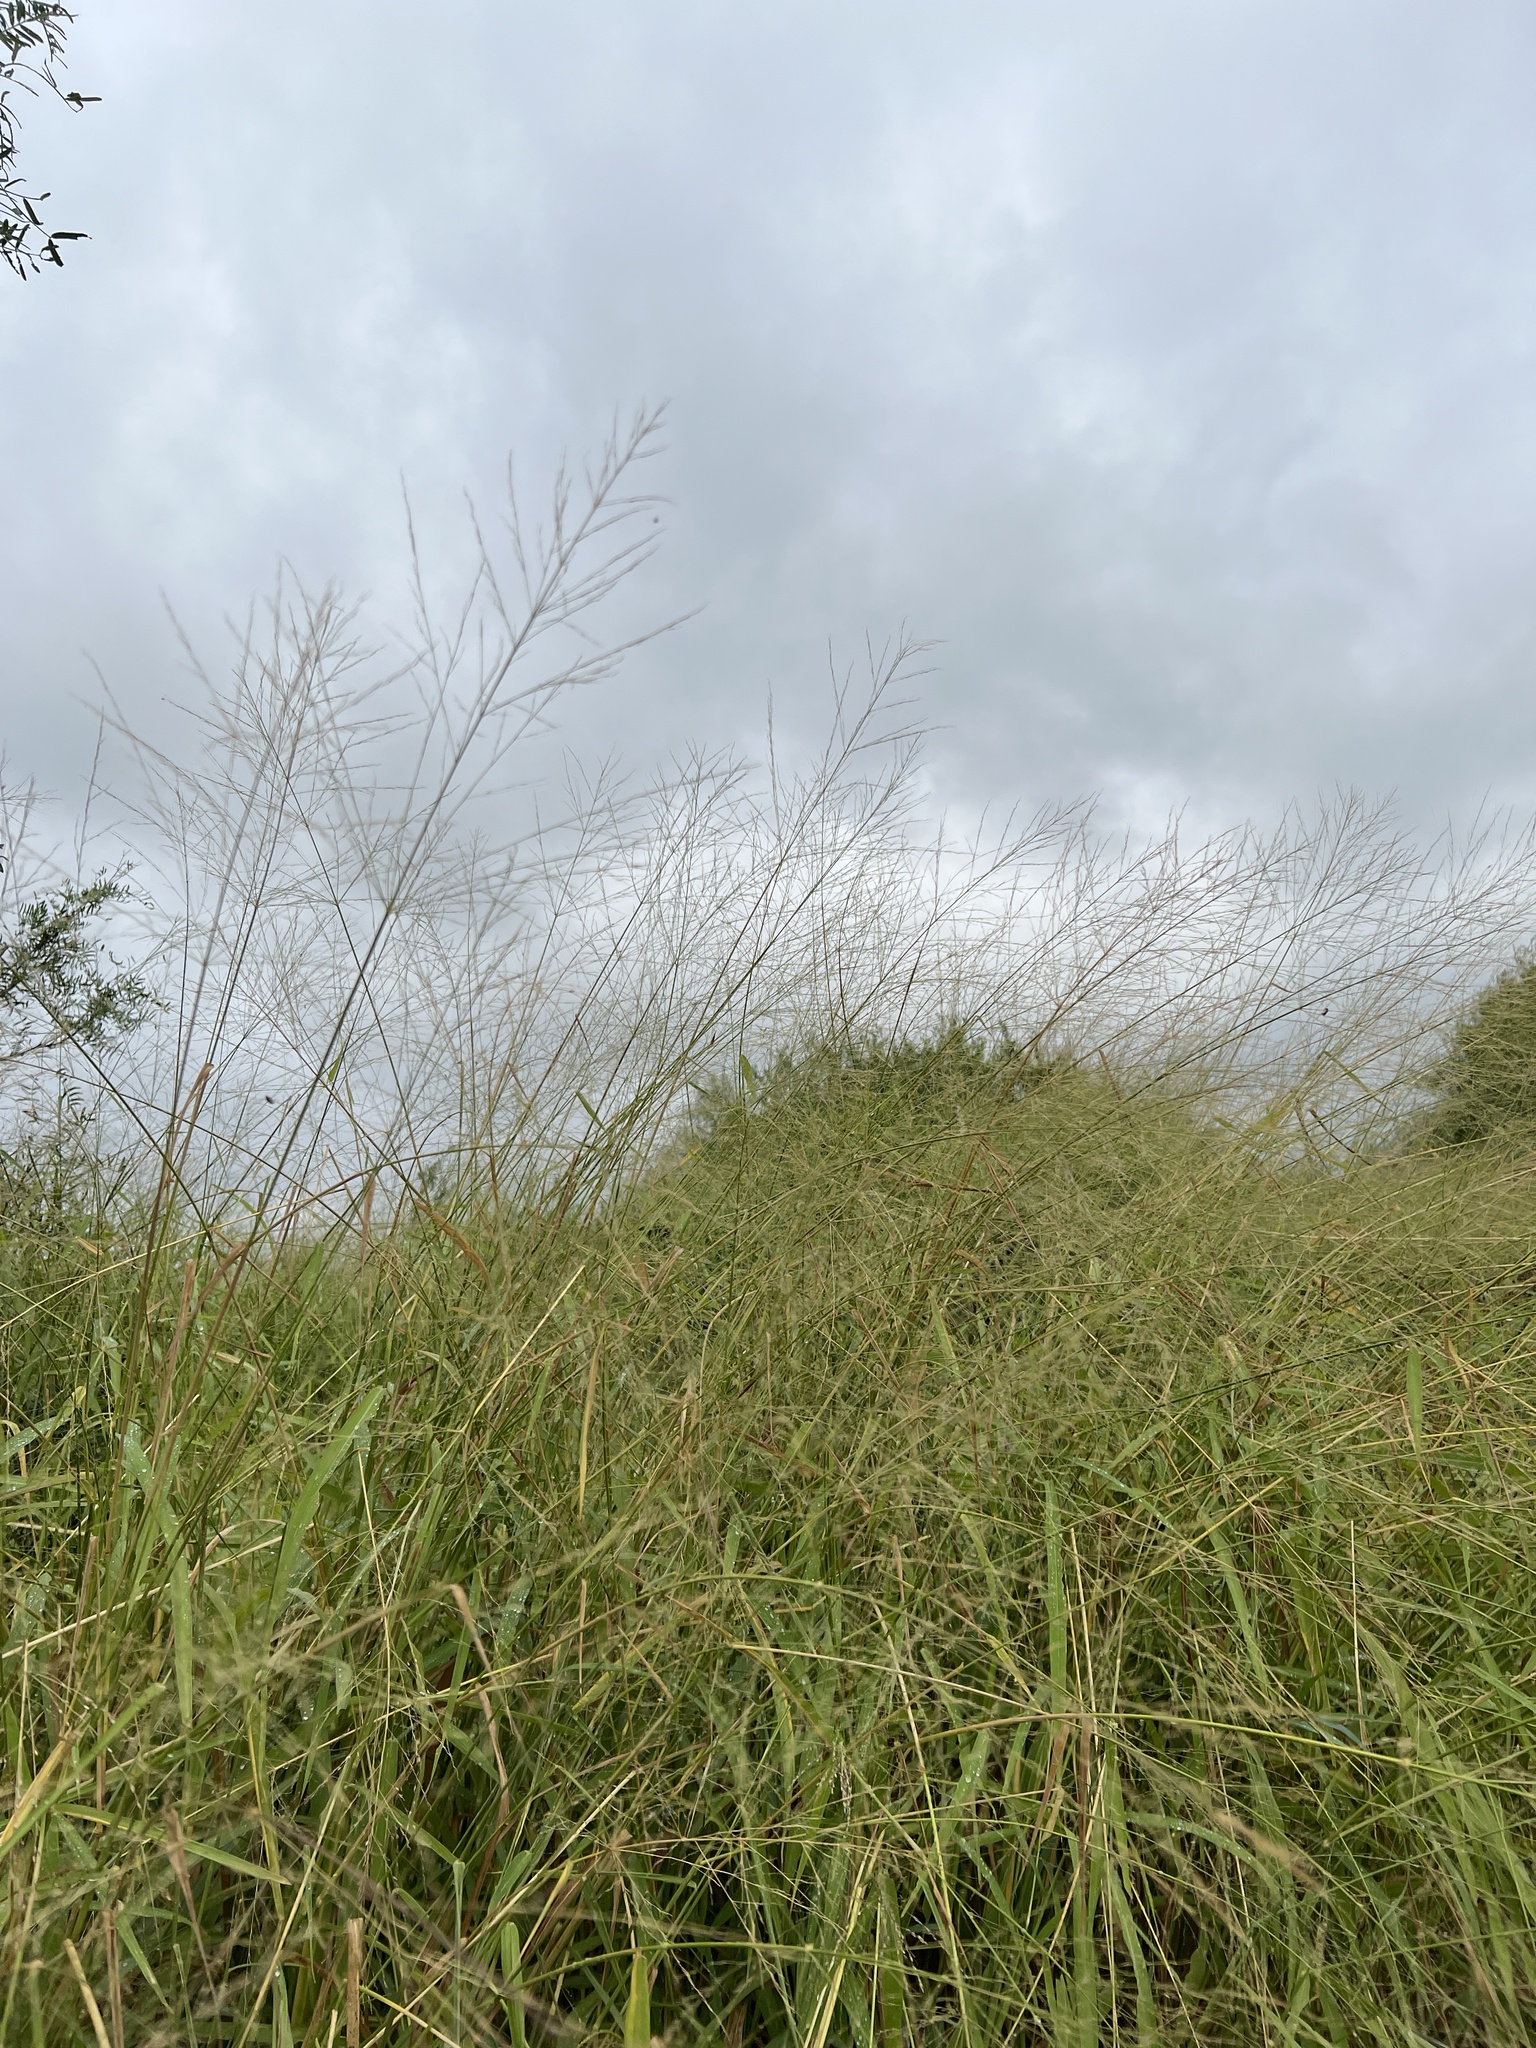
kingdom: Plantae
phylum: Tracheophyta
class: Liliopsida
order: Poales
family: Poaceae
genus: Megathyrsus
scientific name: Megathyrsus maximus
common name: Guineagrass
